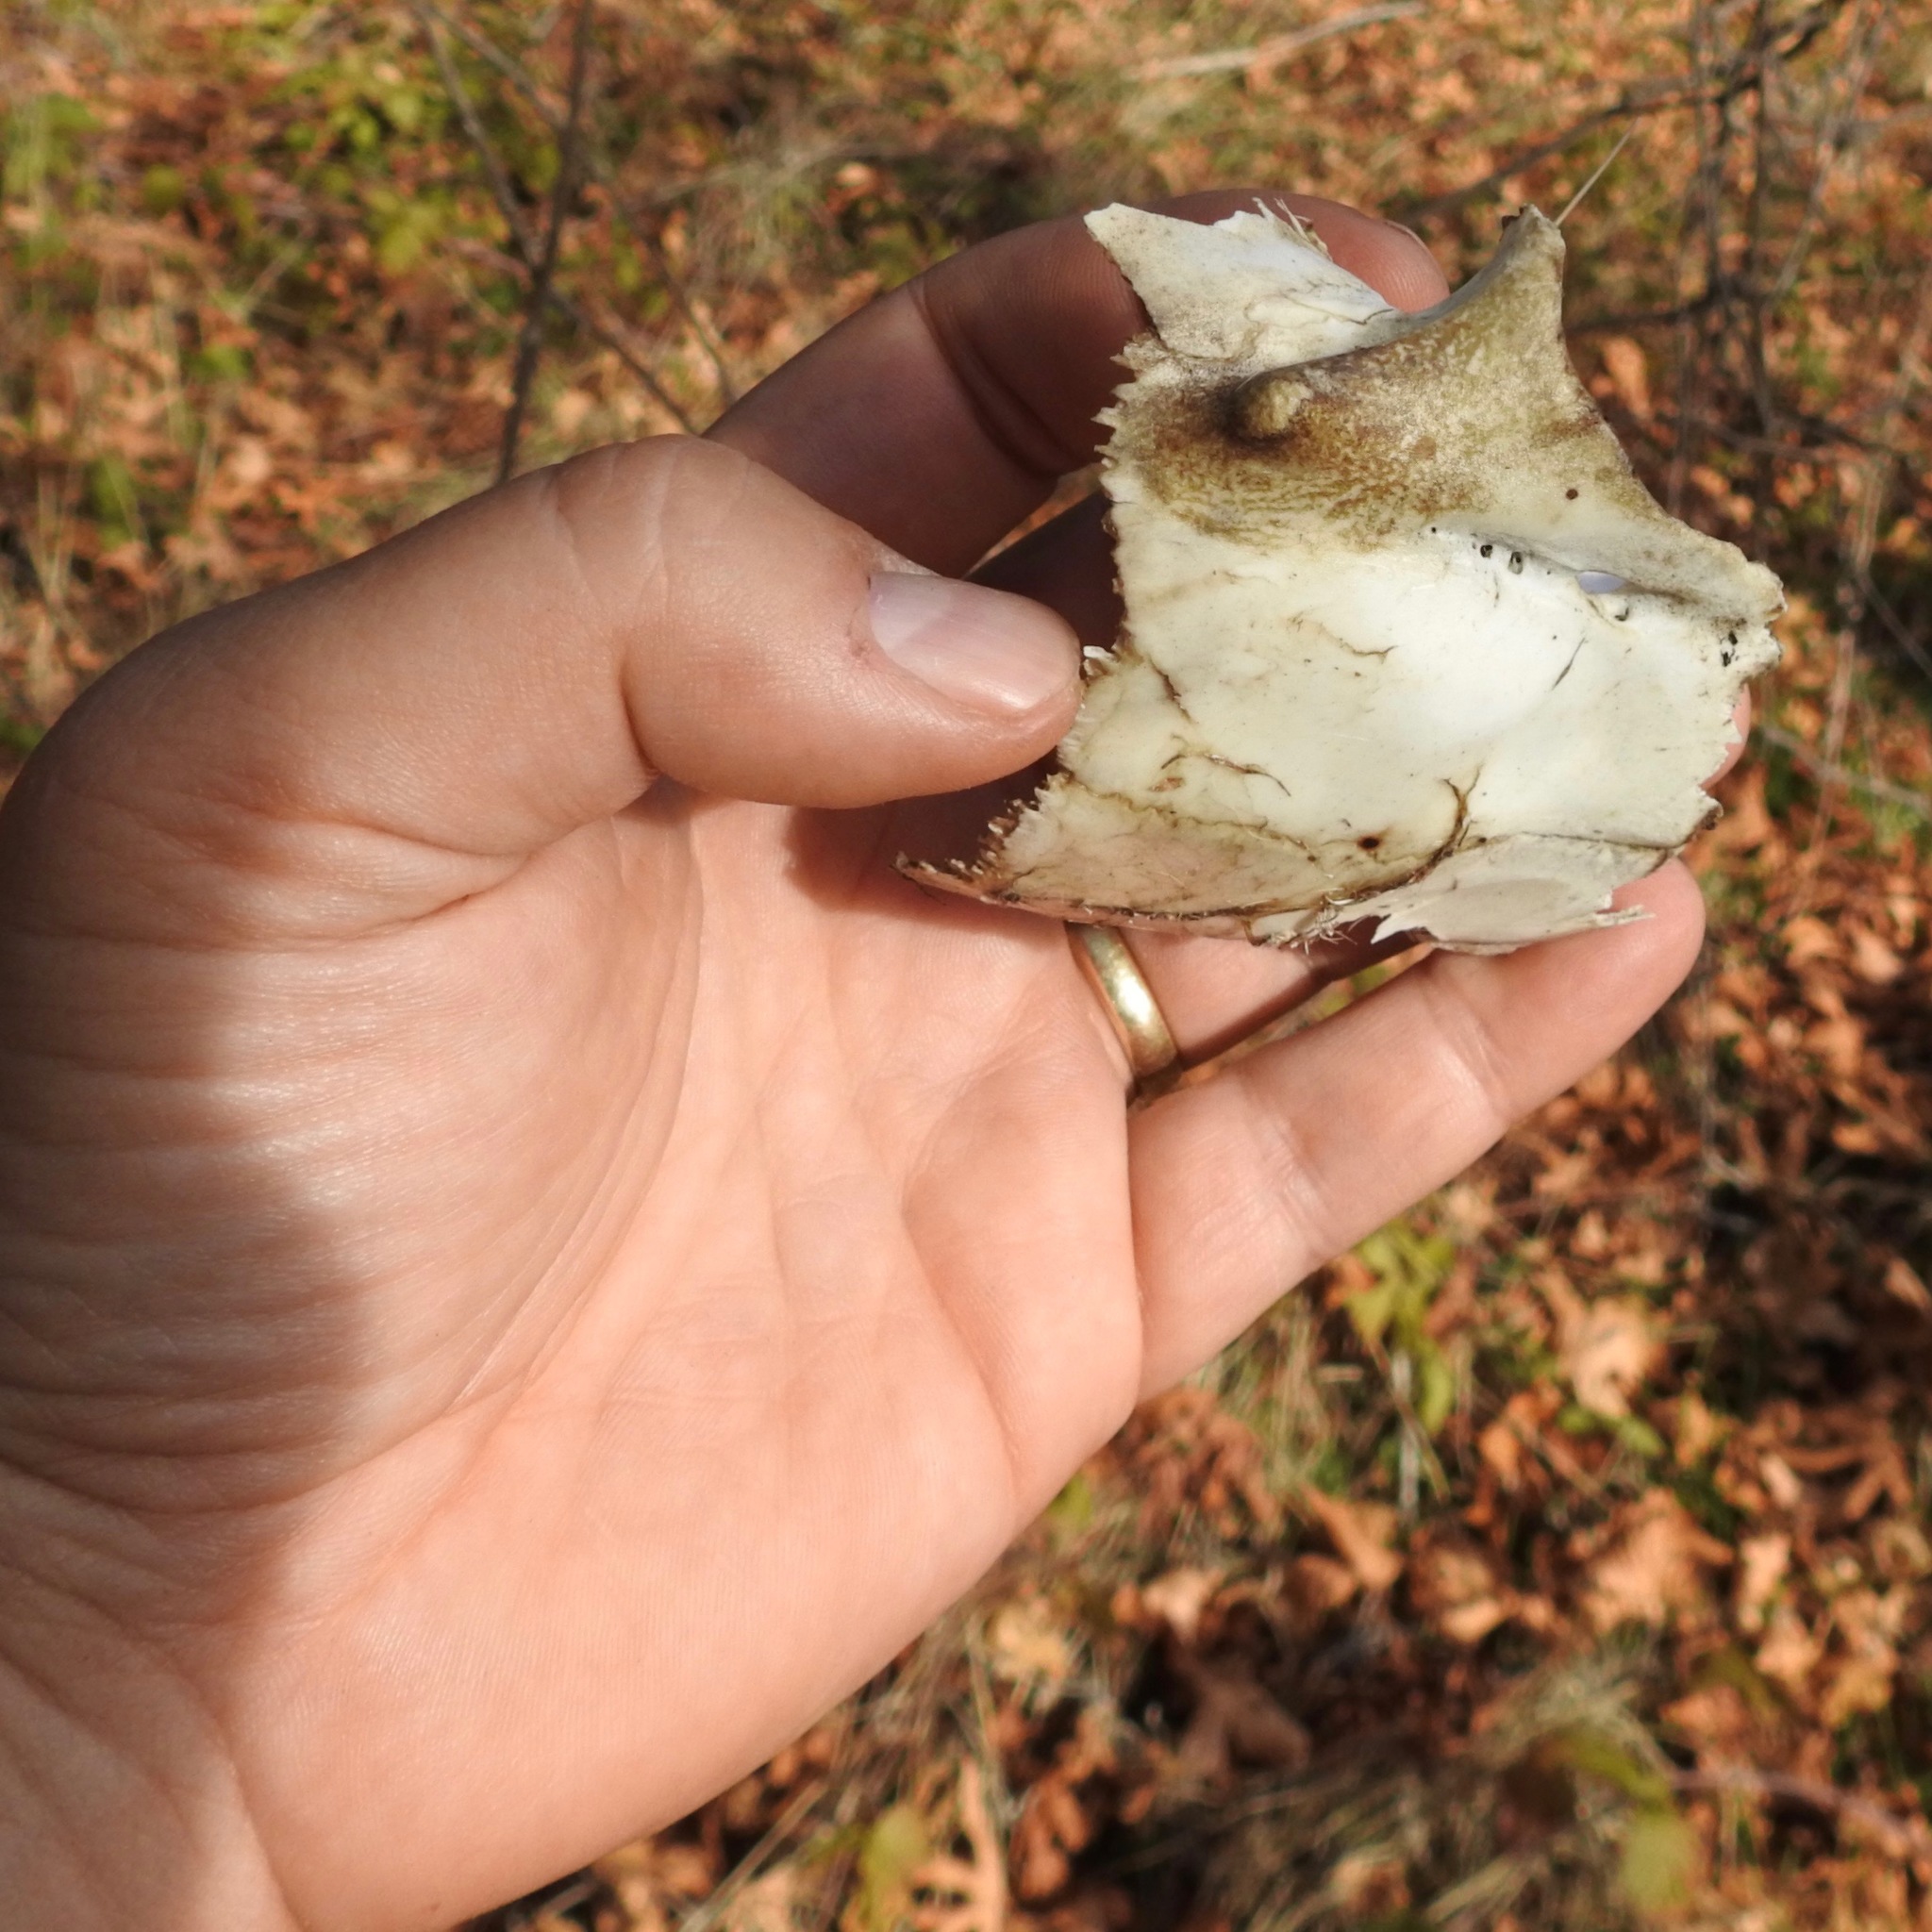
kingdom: Animalia
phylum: Chordata
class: Mammalia
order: Artiodactyla
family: Cervidae
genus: Odocoileus
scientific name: Odocoileus hemionus
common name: Mule deer
